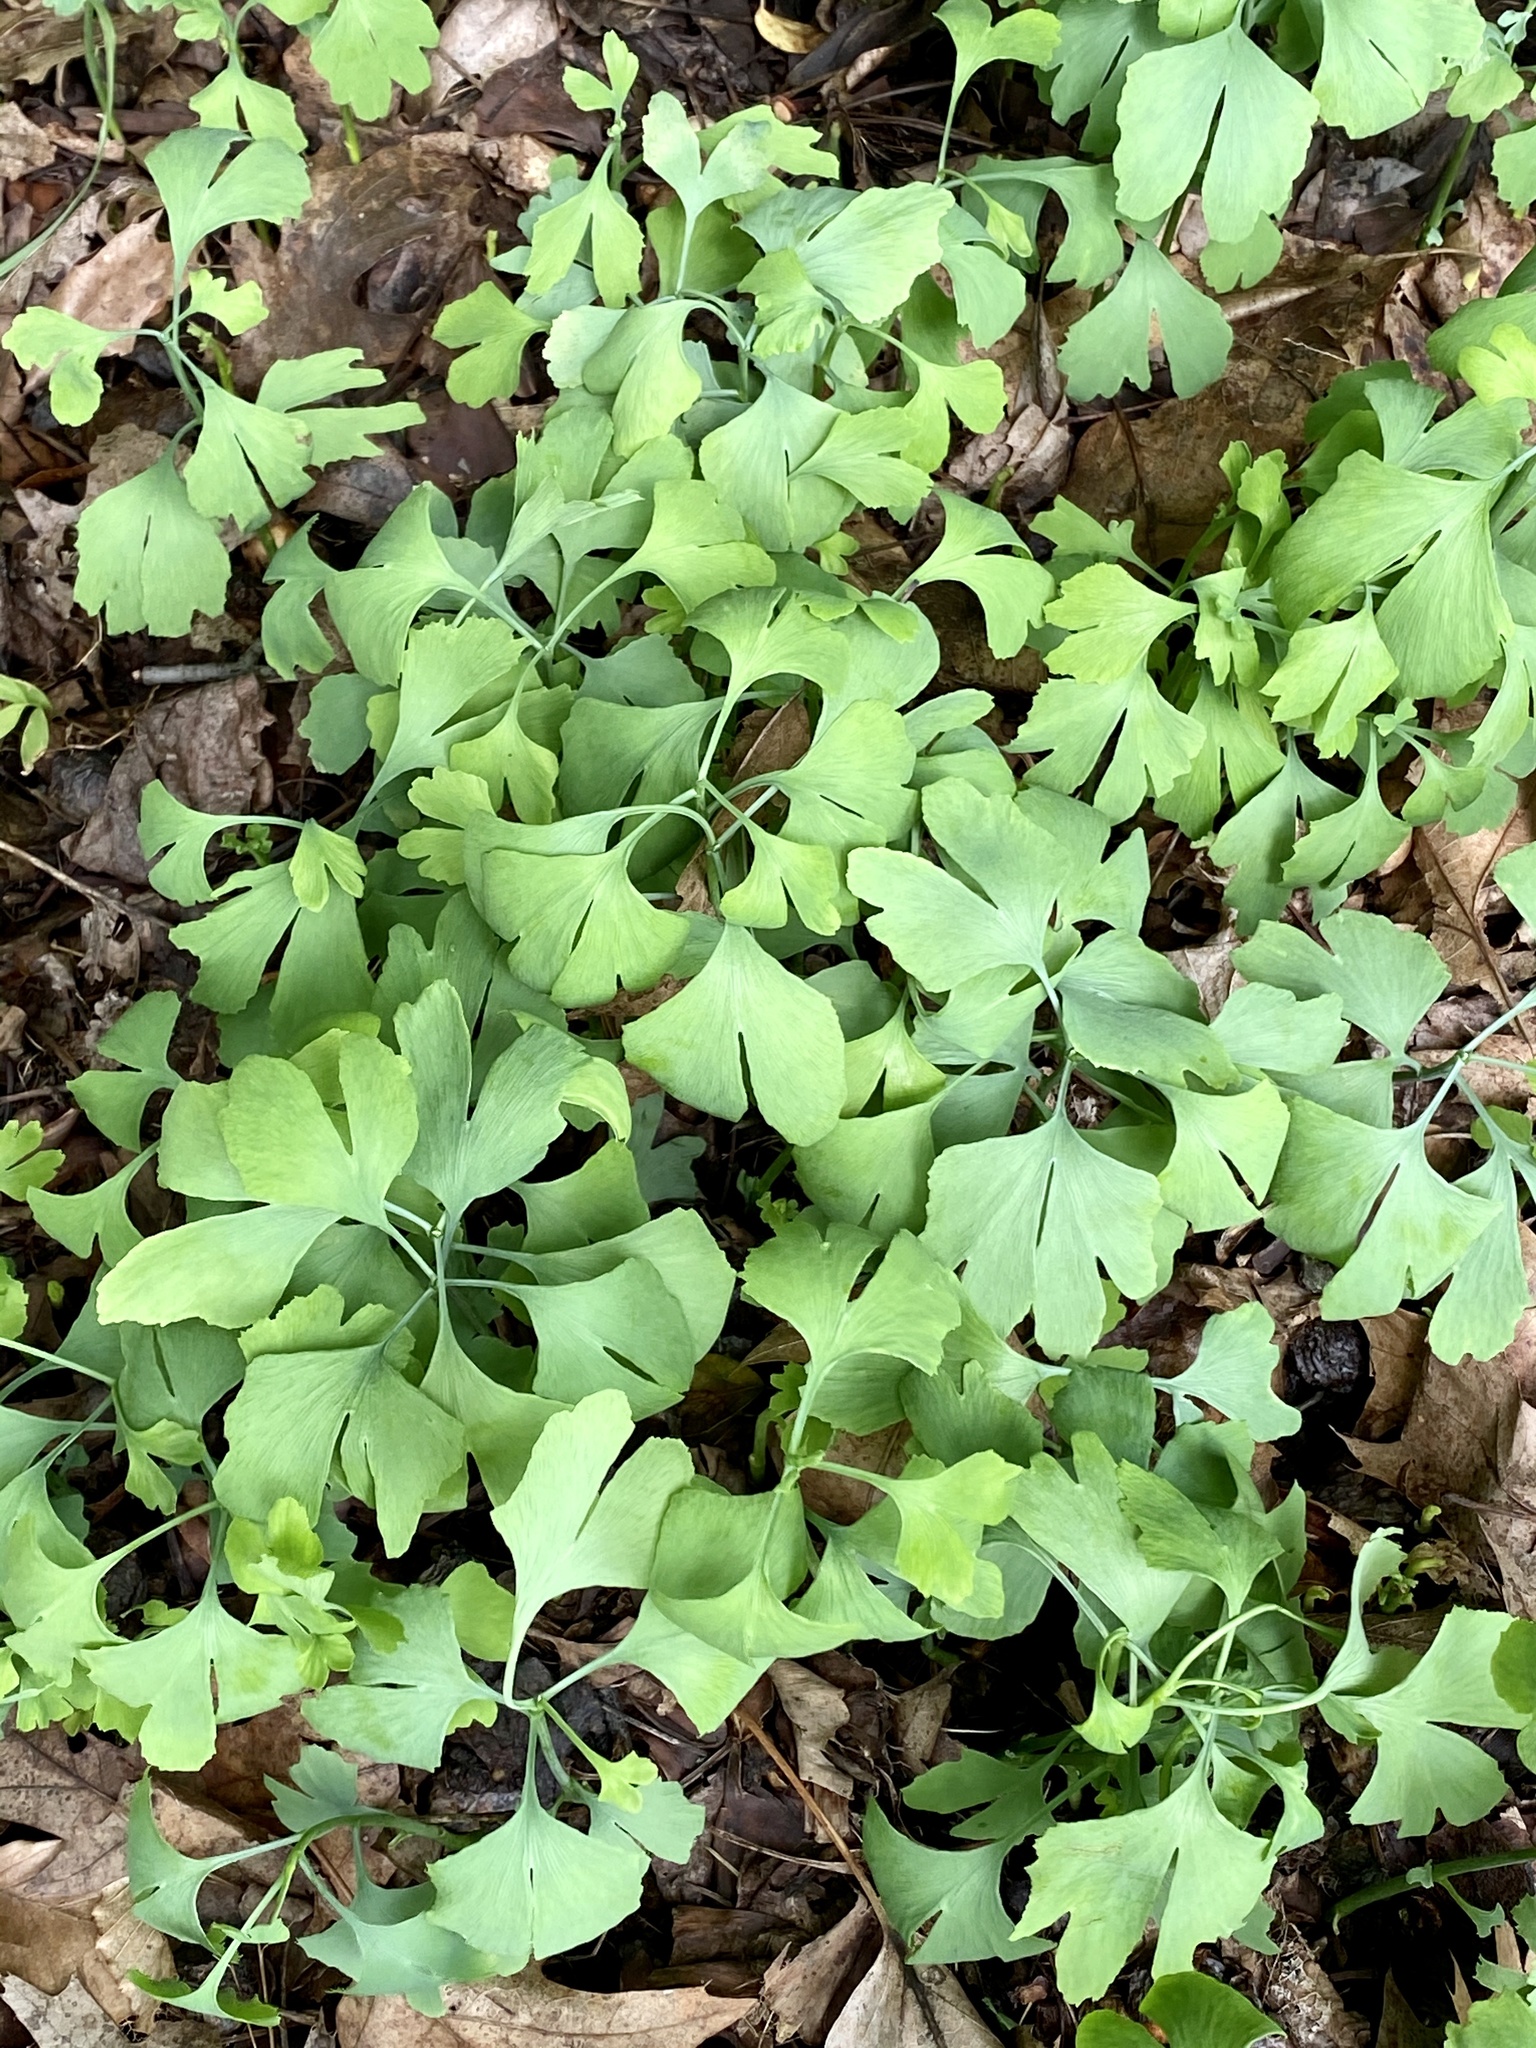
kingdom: Plantae
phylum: Tracheophyta
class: Ginkgoopsida
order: Ginkgoales
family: Ginkgoaceae
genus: Ginkgo
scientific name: Ginkgo biloba
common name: Ginkgo
